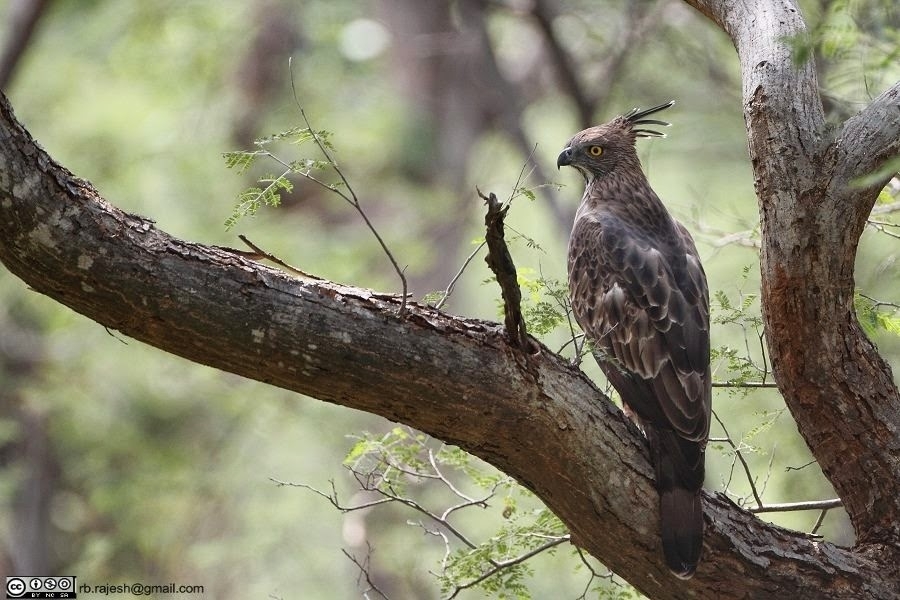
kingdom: Animalia
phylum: Chordata
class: Aves
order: Accipitriformes
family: Accipitridae
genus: Nisaetus
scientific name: Nisaetus cirrhatus
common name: Changeable hawk-eagle
